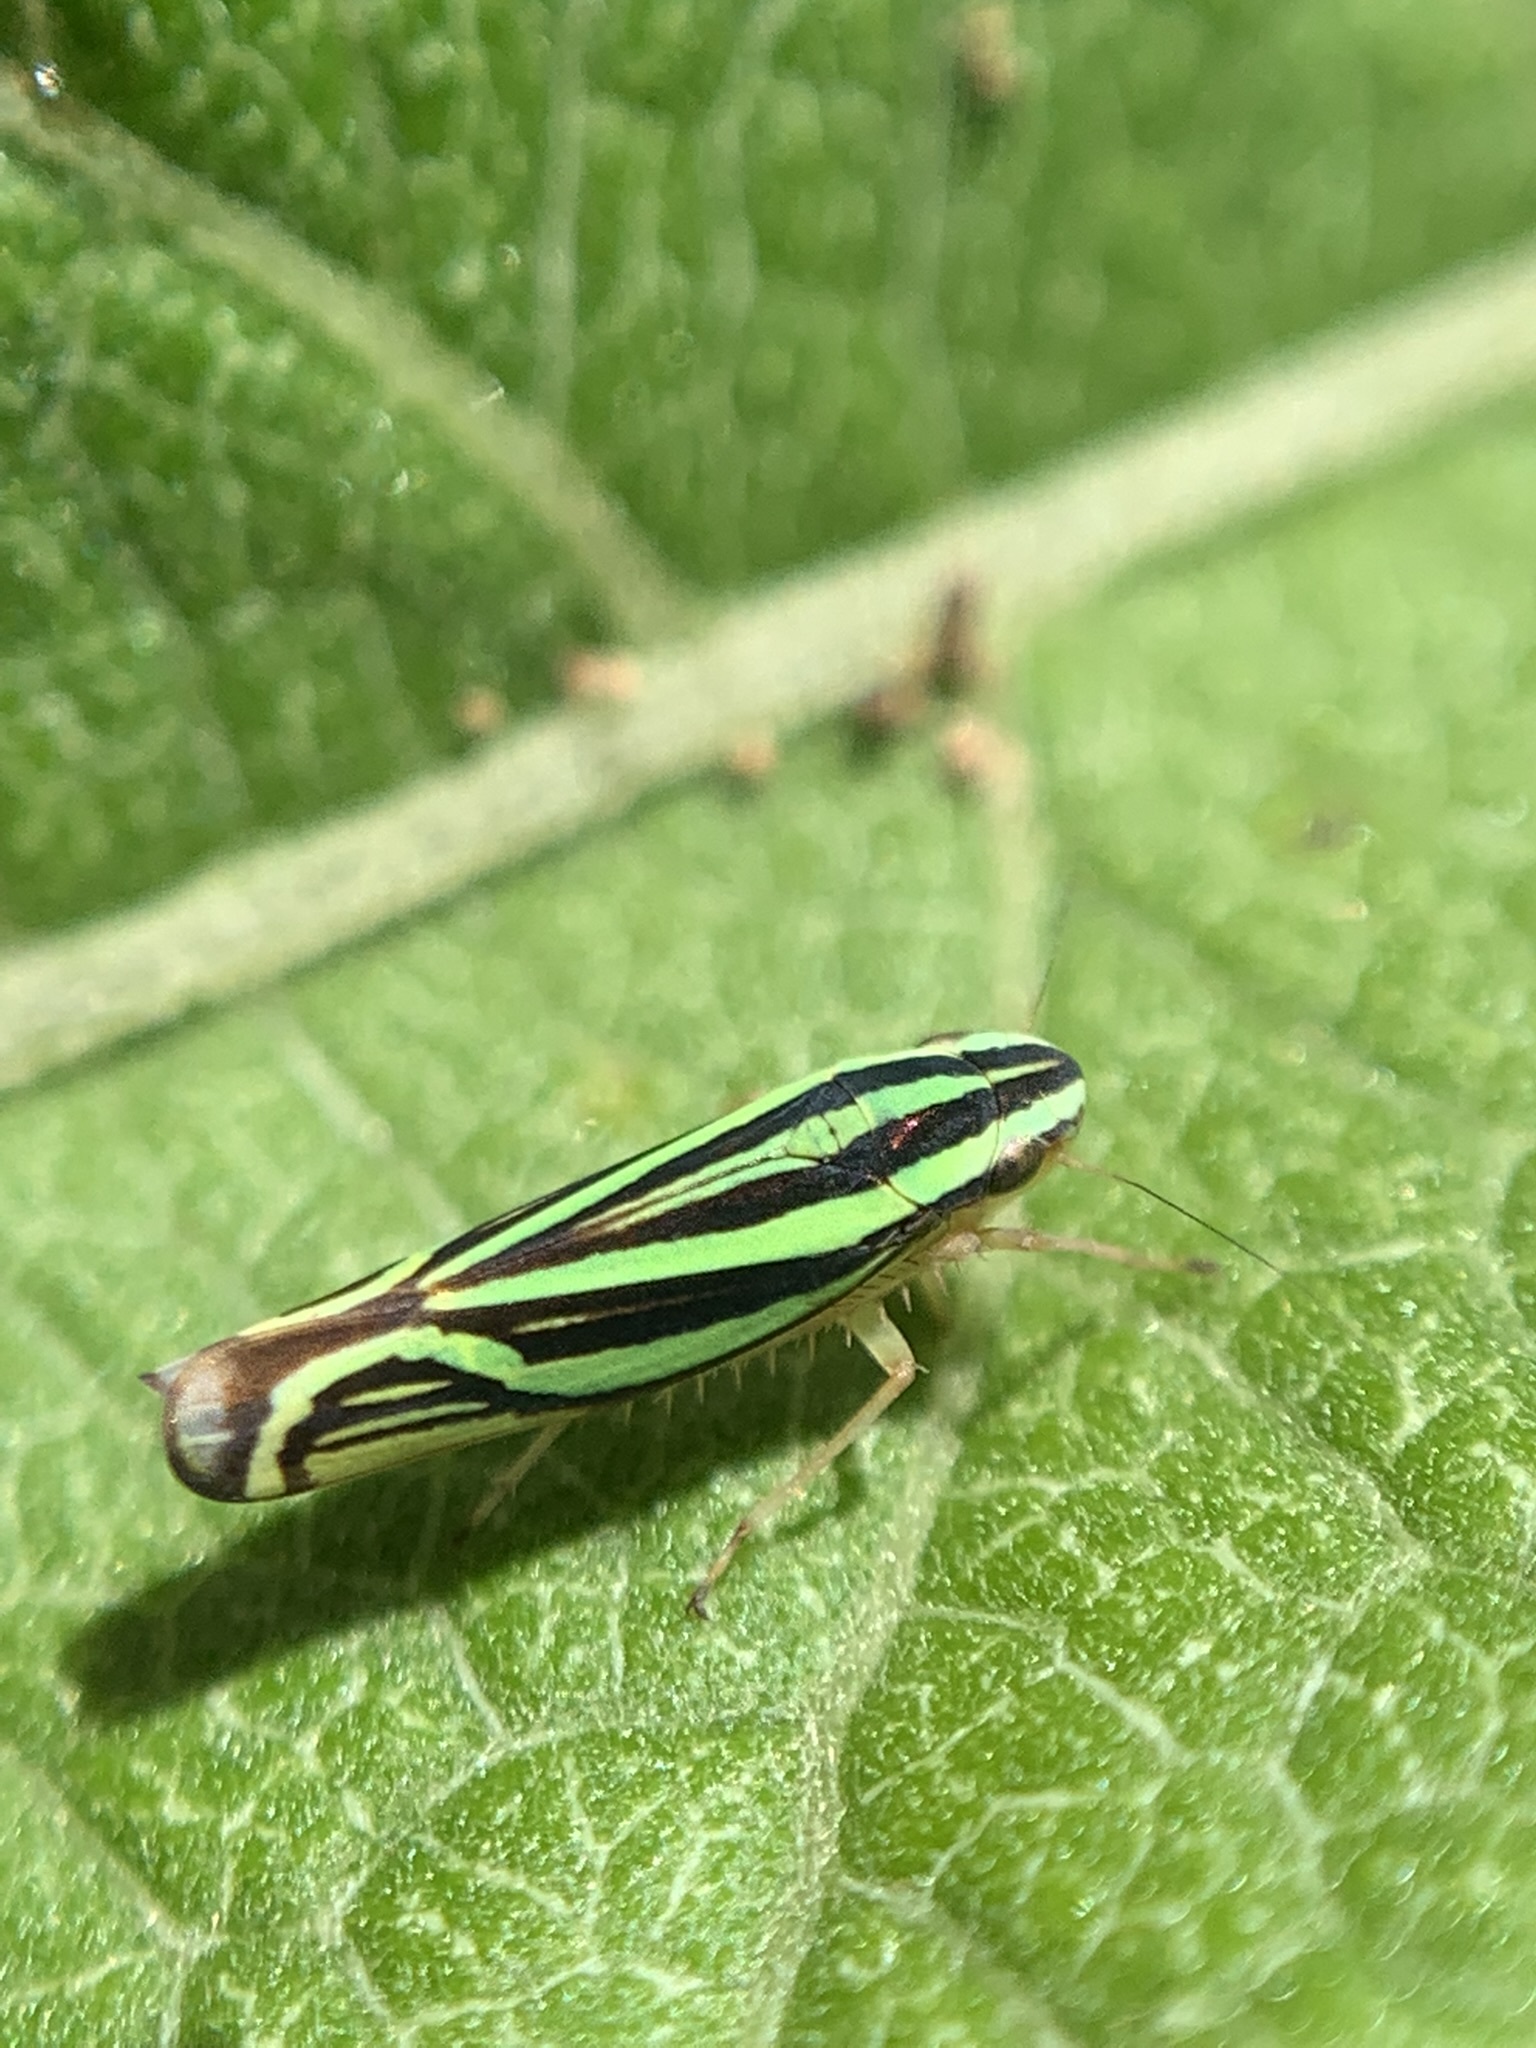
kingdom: Animalia
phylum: Arthropoda
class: Insecta
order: Hemiptera
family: Cicadellidae
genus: Sibovia
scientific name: Sibovia sagata
